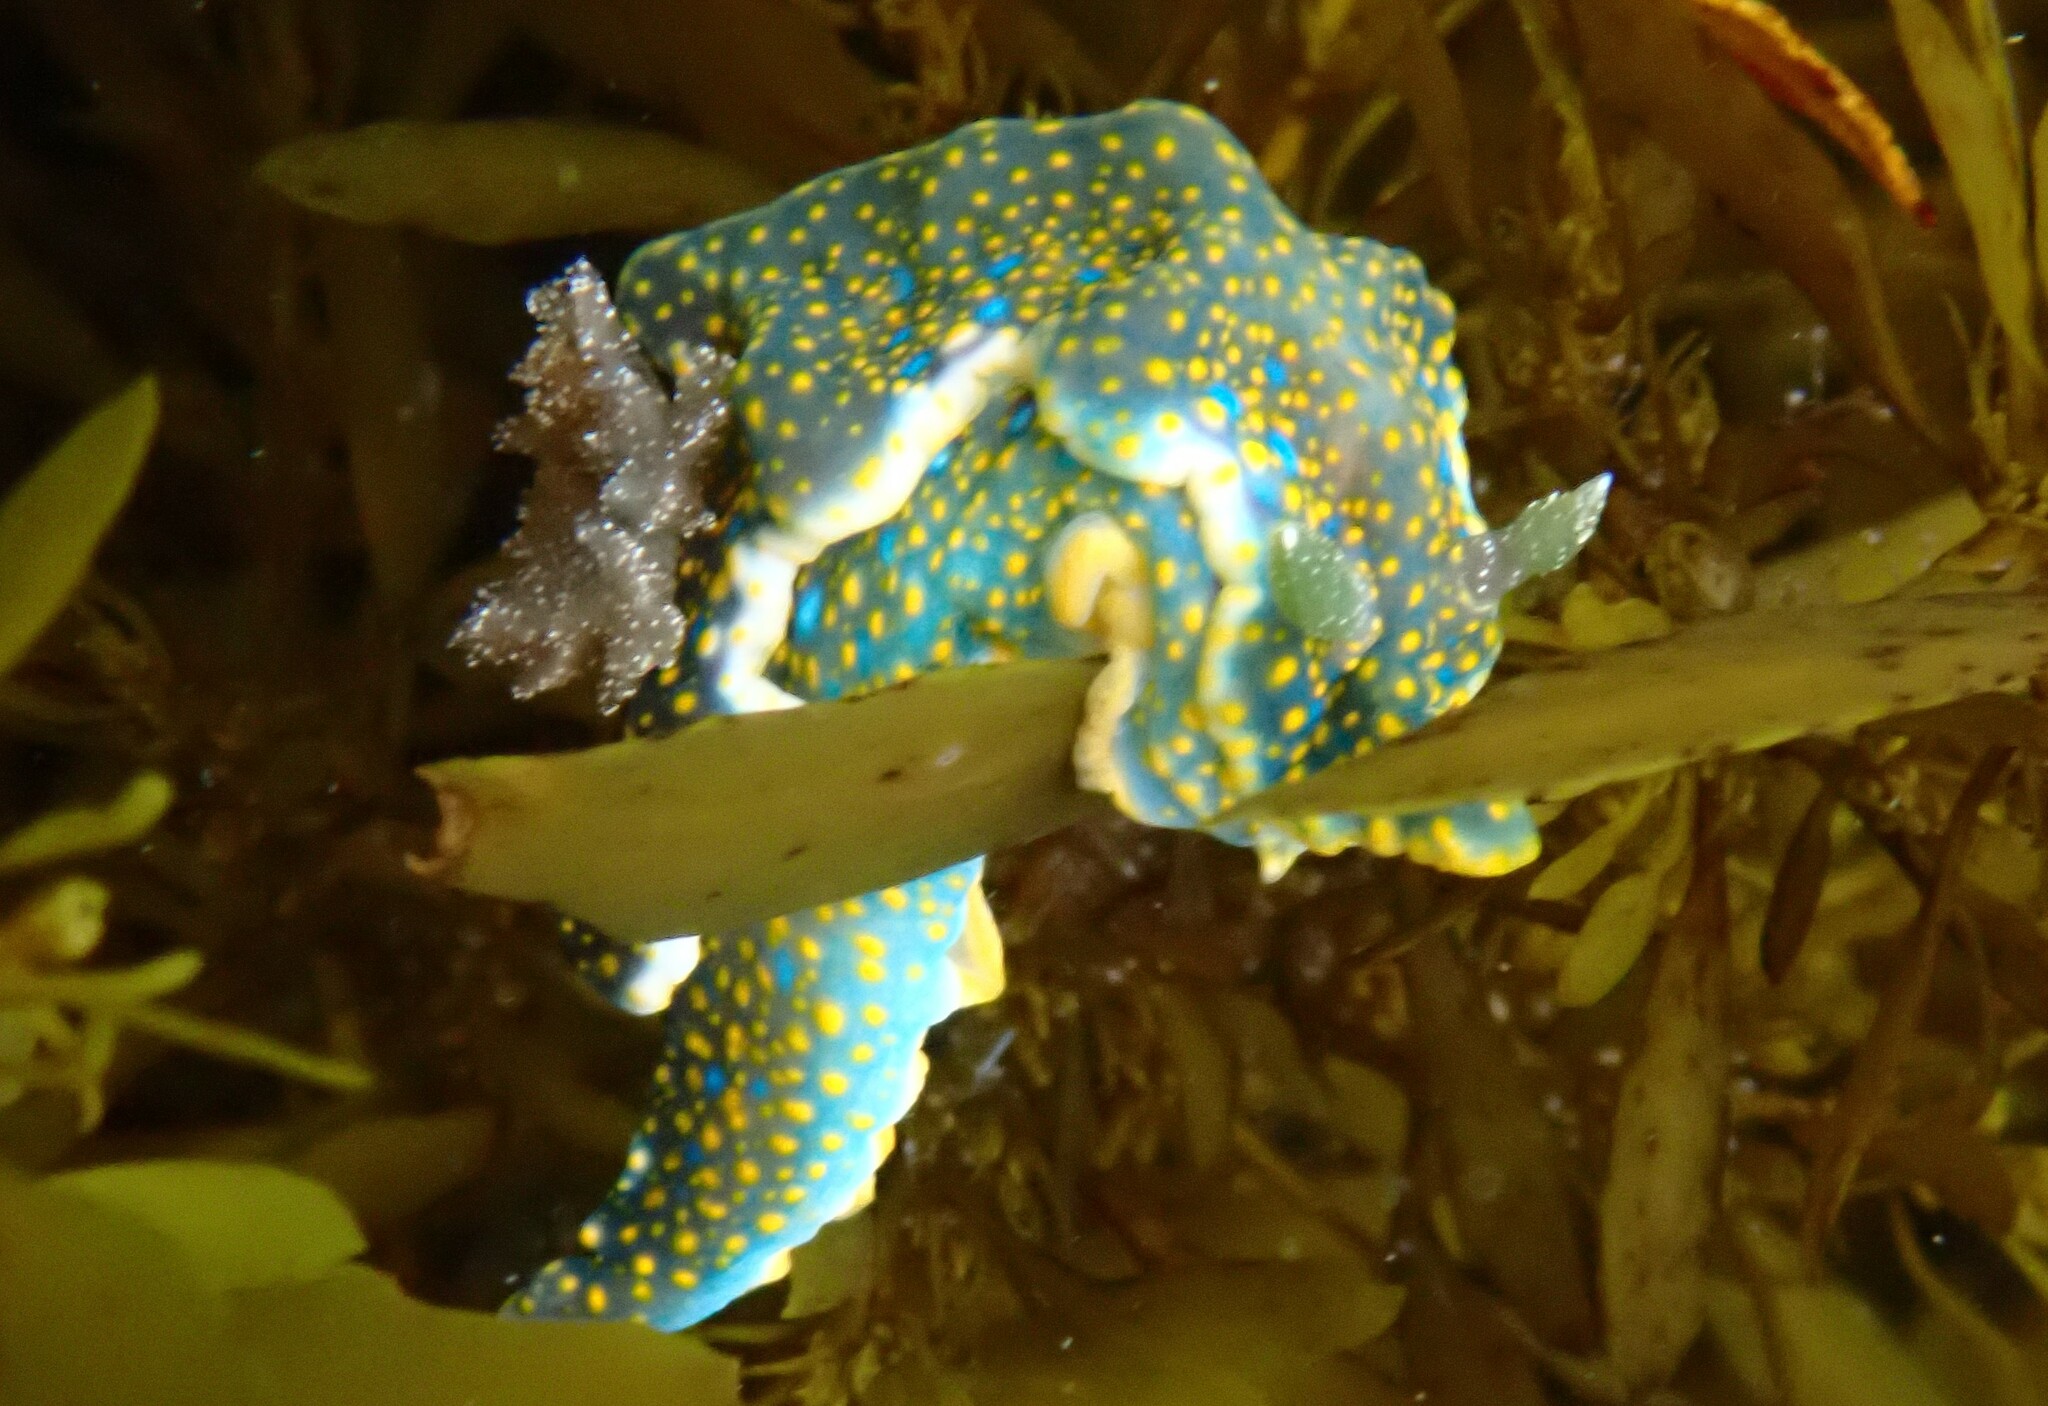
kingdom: Animalia
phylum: Mollusca
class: Gastropoda
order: Nudibranchia
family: Chromodorididae
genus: Miamira
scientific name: Miamira sinuata
